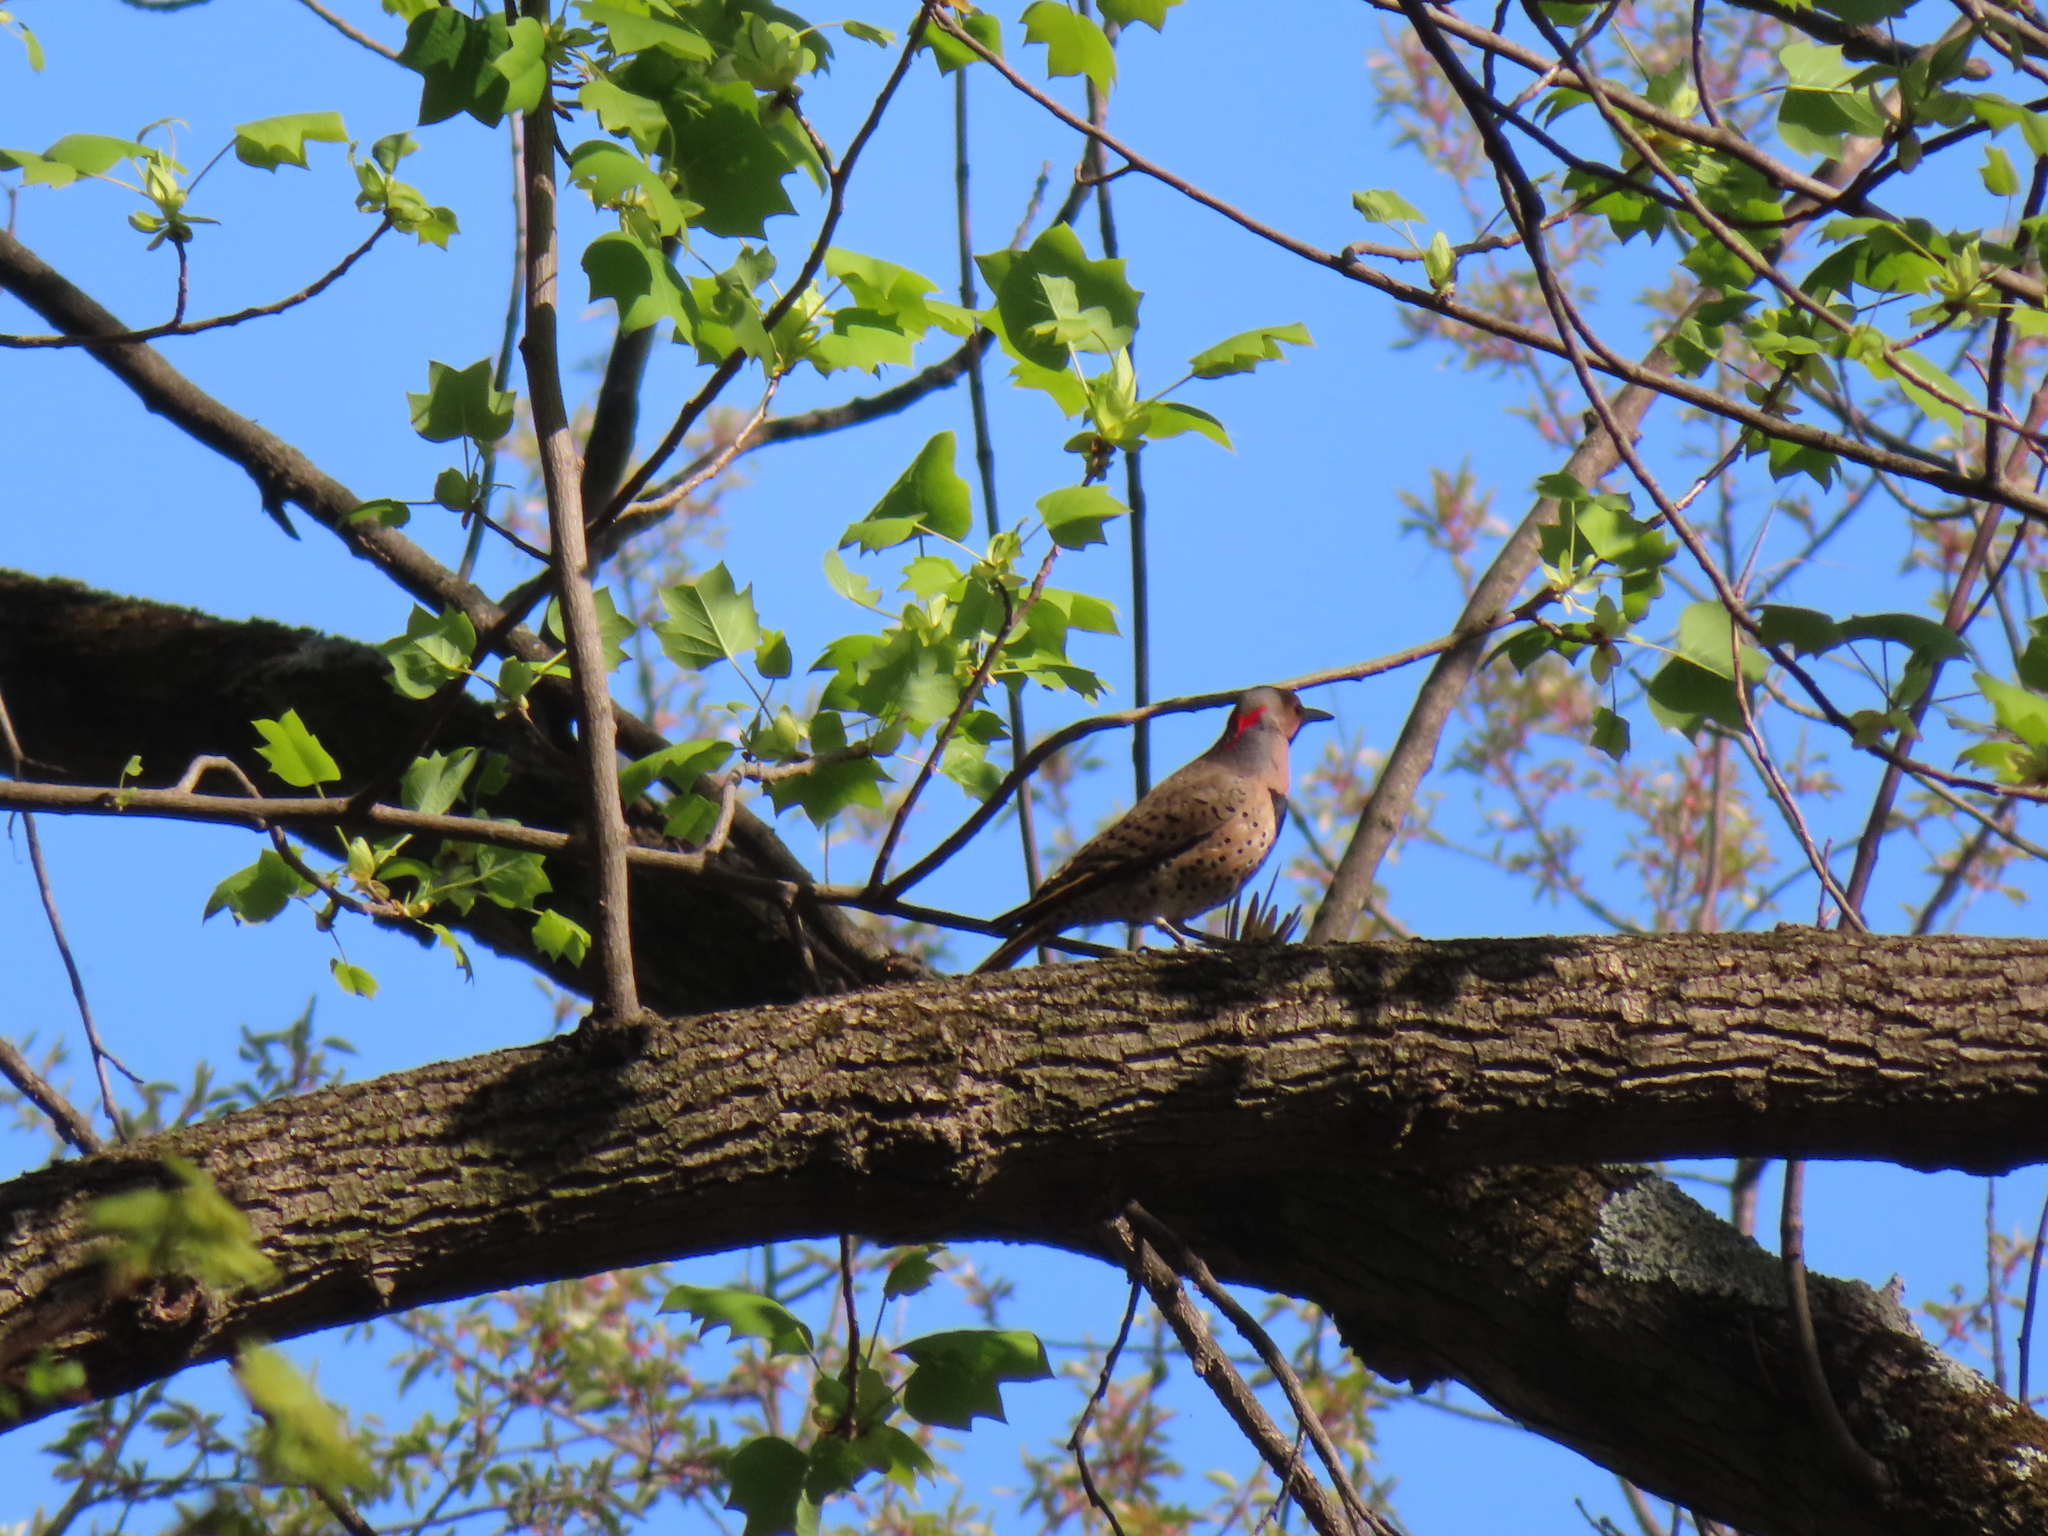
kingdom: Animalia
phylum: Chordata
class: Aves
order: Piciformes
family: Picidae
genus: Colaptes
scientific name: Colaptes auratus
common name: Northern flicker
